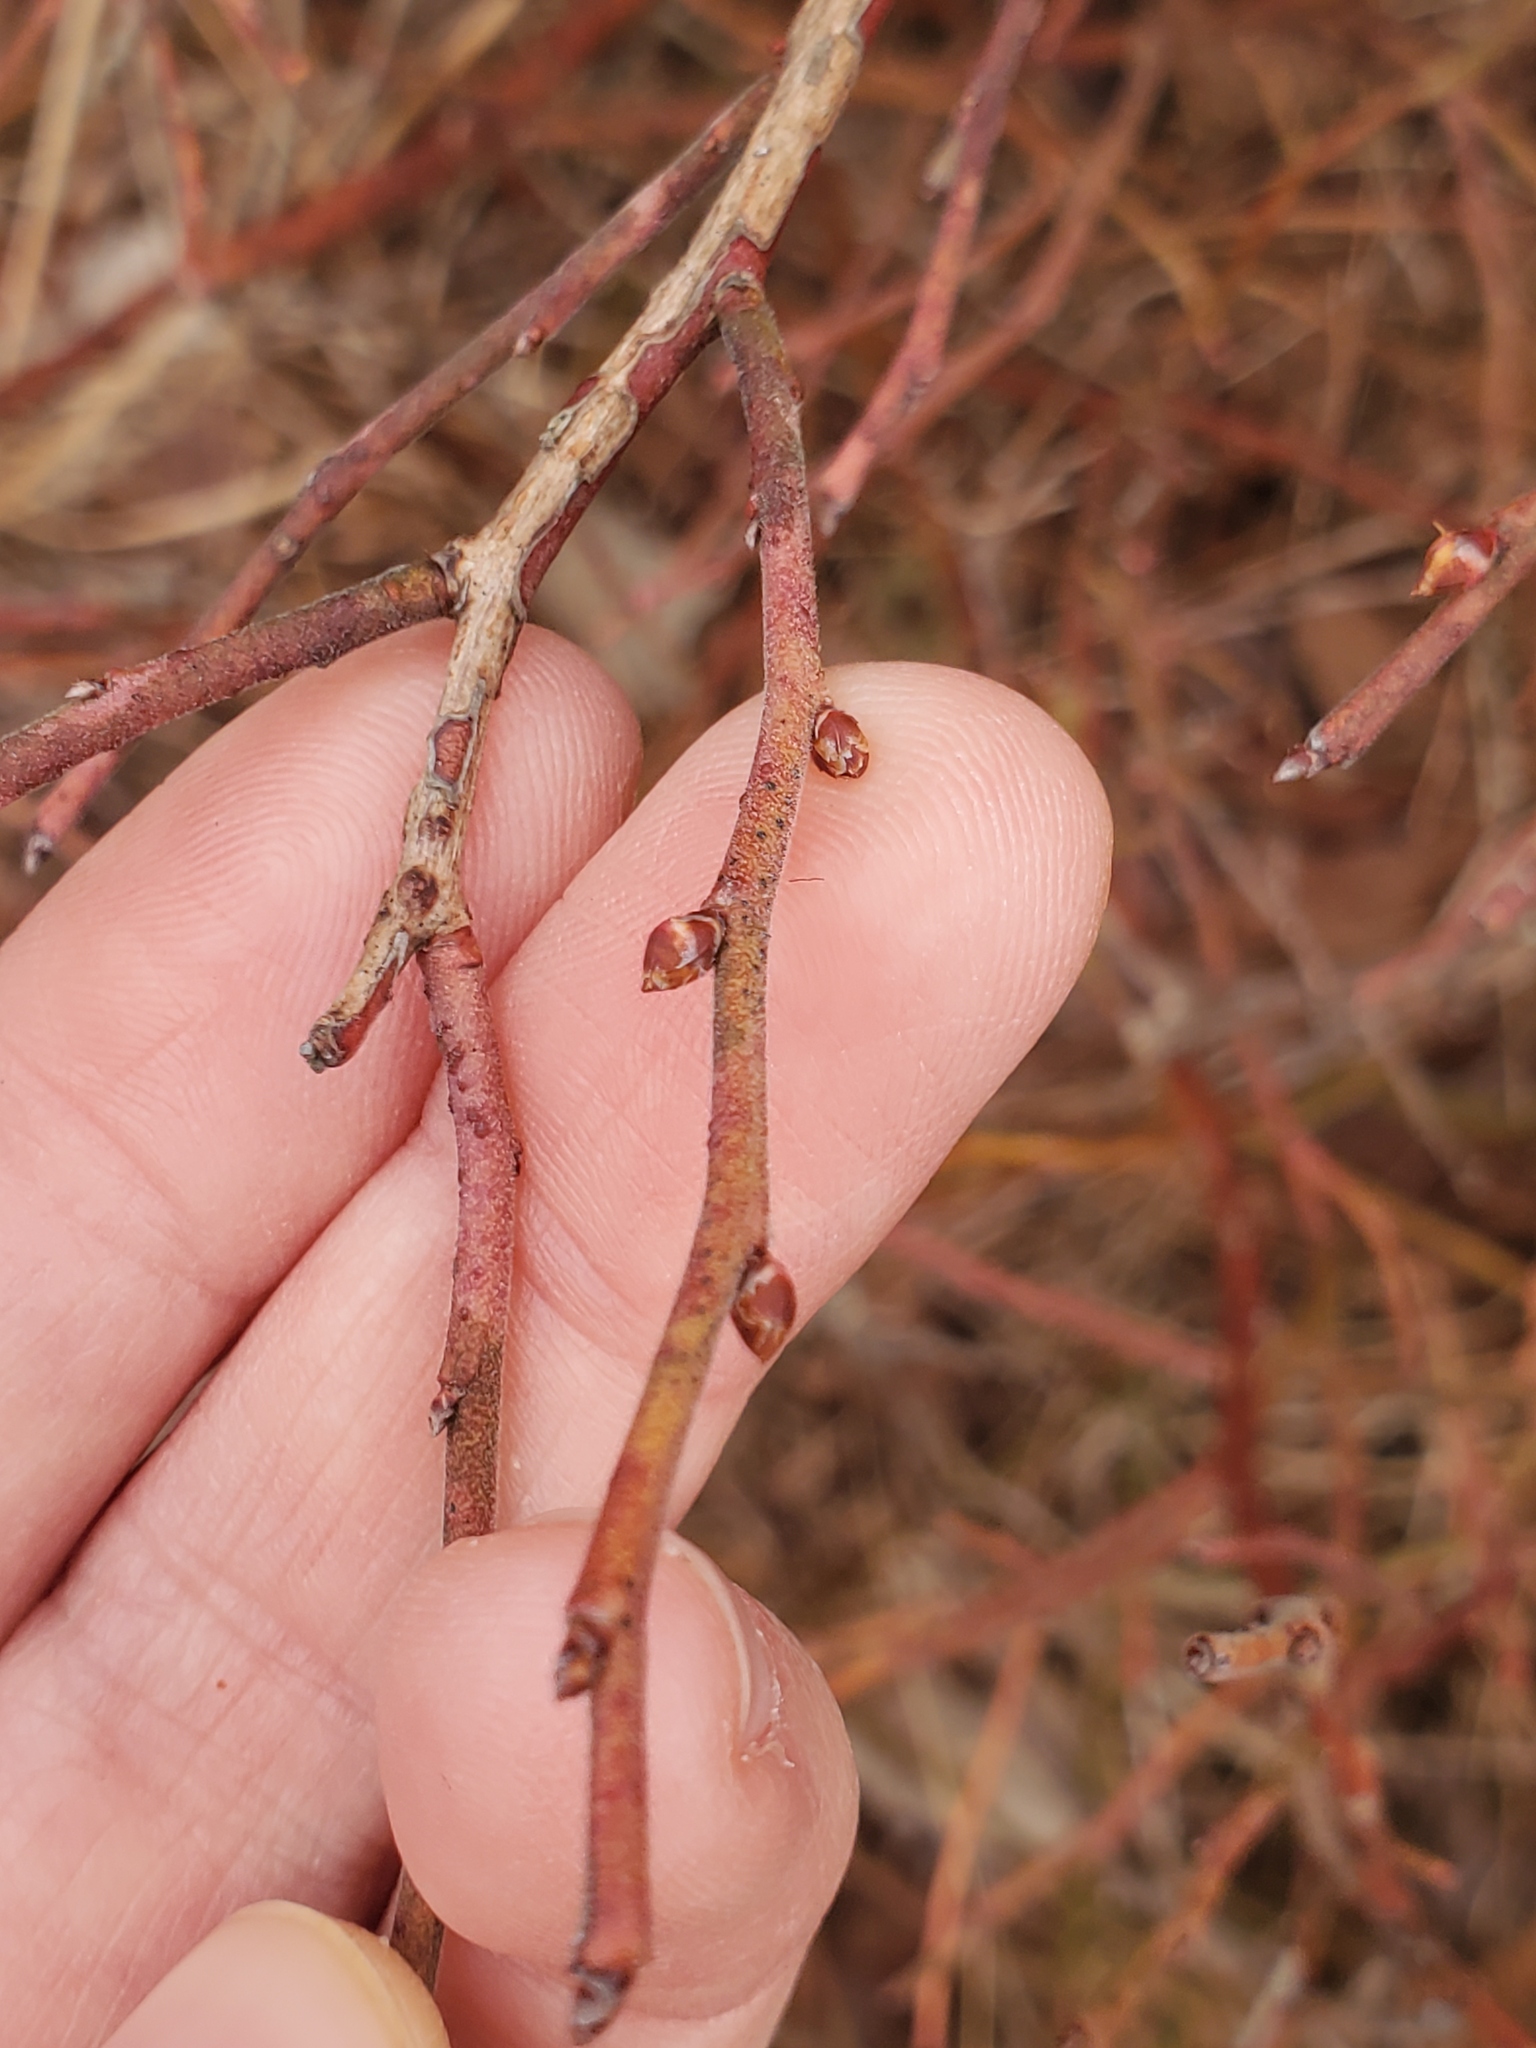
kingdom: Plantae
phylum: Tracheophyta
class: Magnoliopsida
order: Ericales
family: Ericaceae
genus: Vaccinium
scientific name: Vaccinium corymbosum
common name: Blueberry
